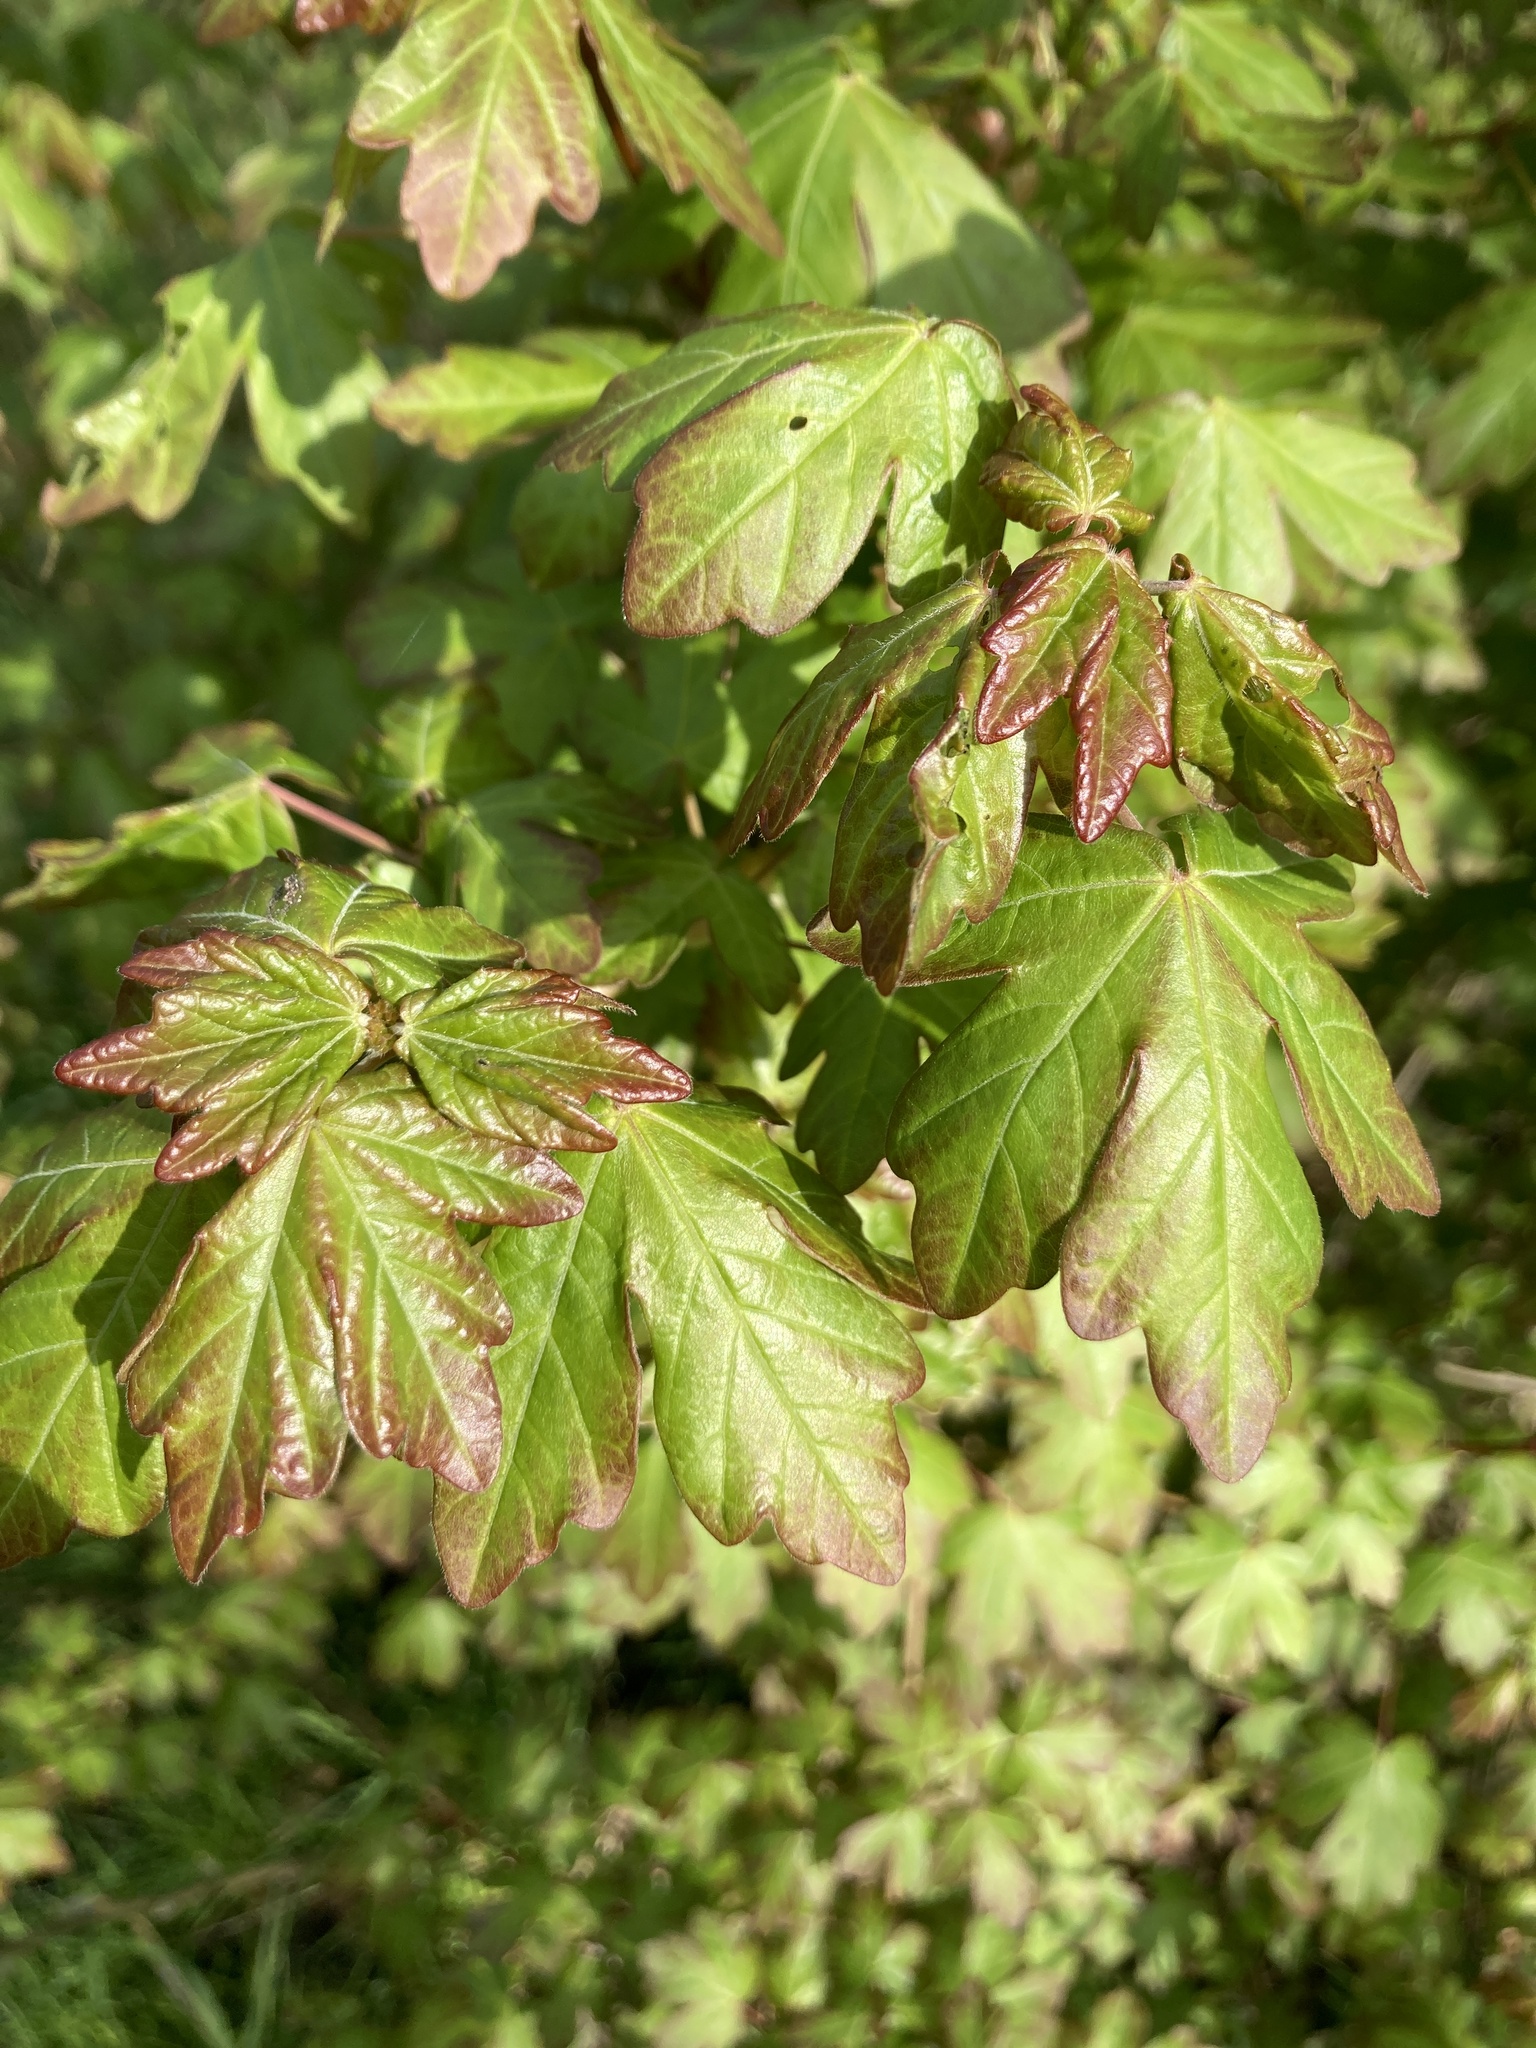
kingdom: Plantae
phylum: Tracheophyta
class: Magnoliopsida
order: Sapindales
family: Sapindaceae
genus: Acer
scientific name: Acer campestre
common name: Field maple
